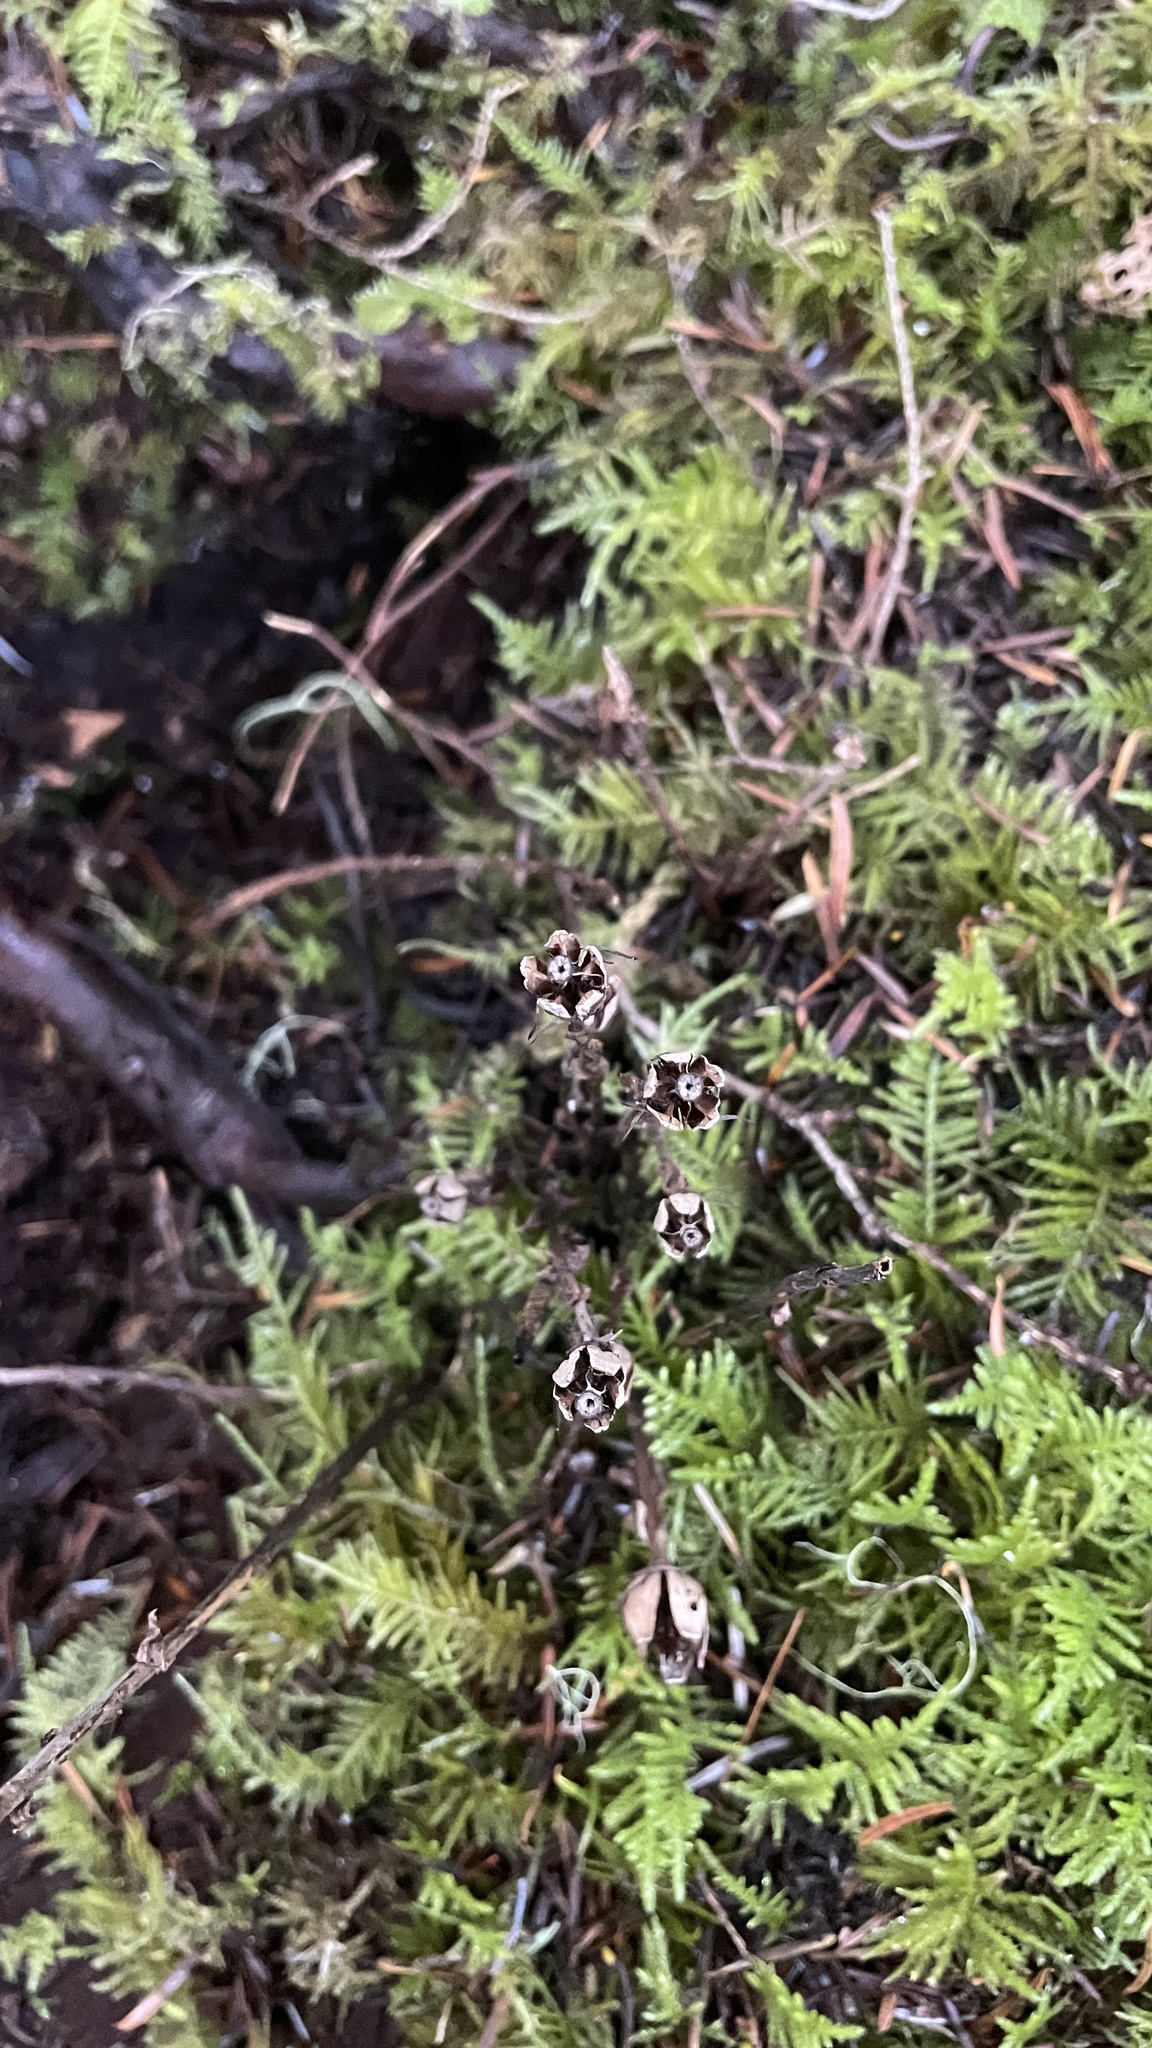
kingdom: Plantae
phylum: Tracheophyta
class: Magnoliopsida
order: Ericales
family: Ericaceae
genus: Monotropa
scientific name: Monotropa uniflora
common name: Convulsion root
